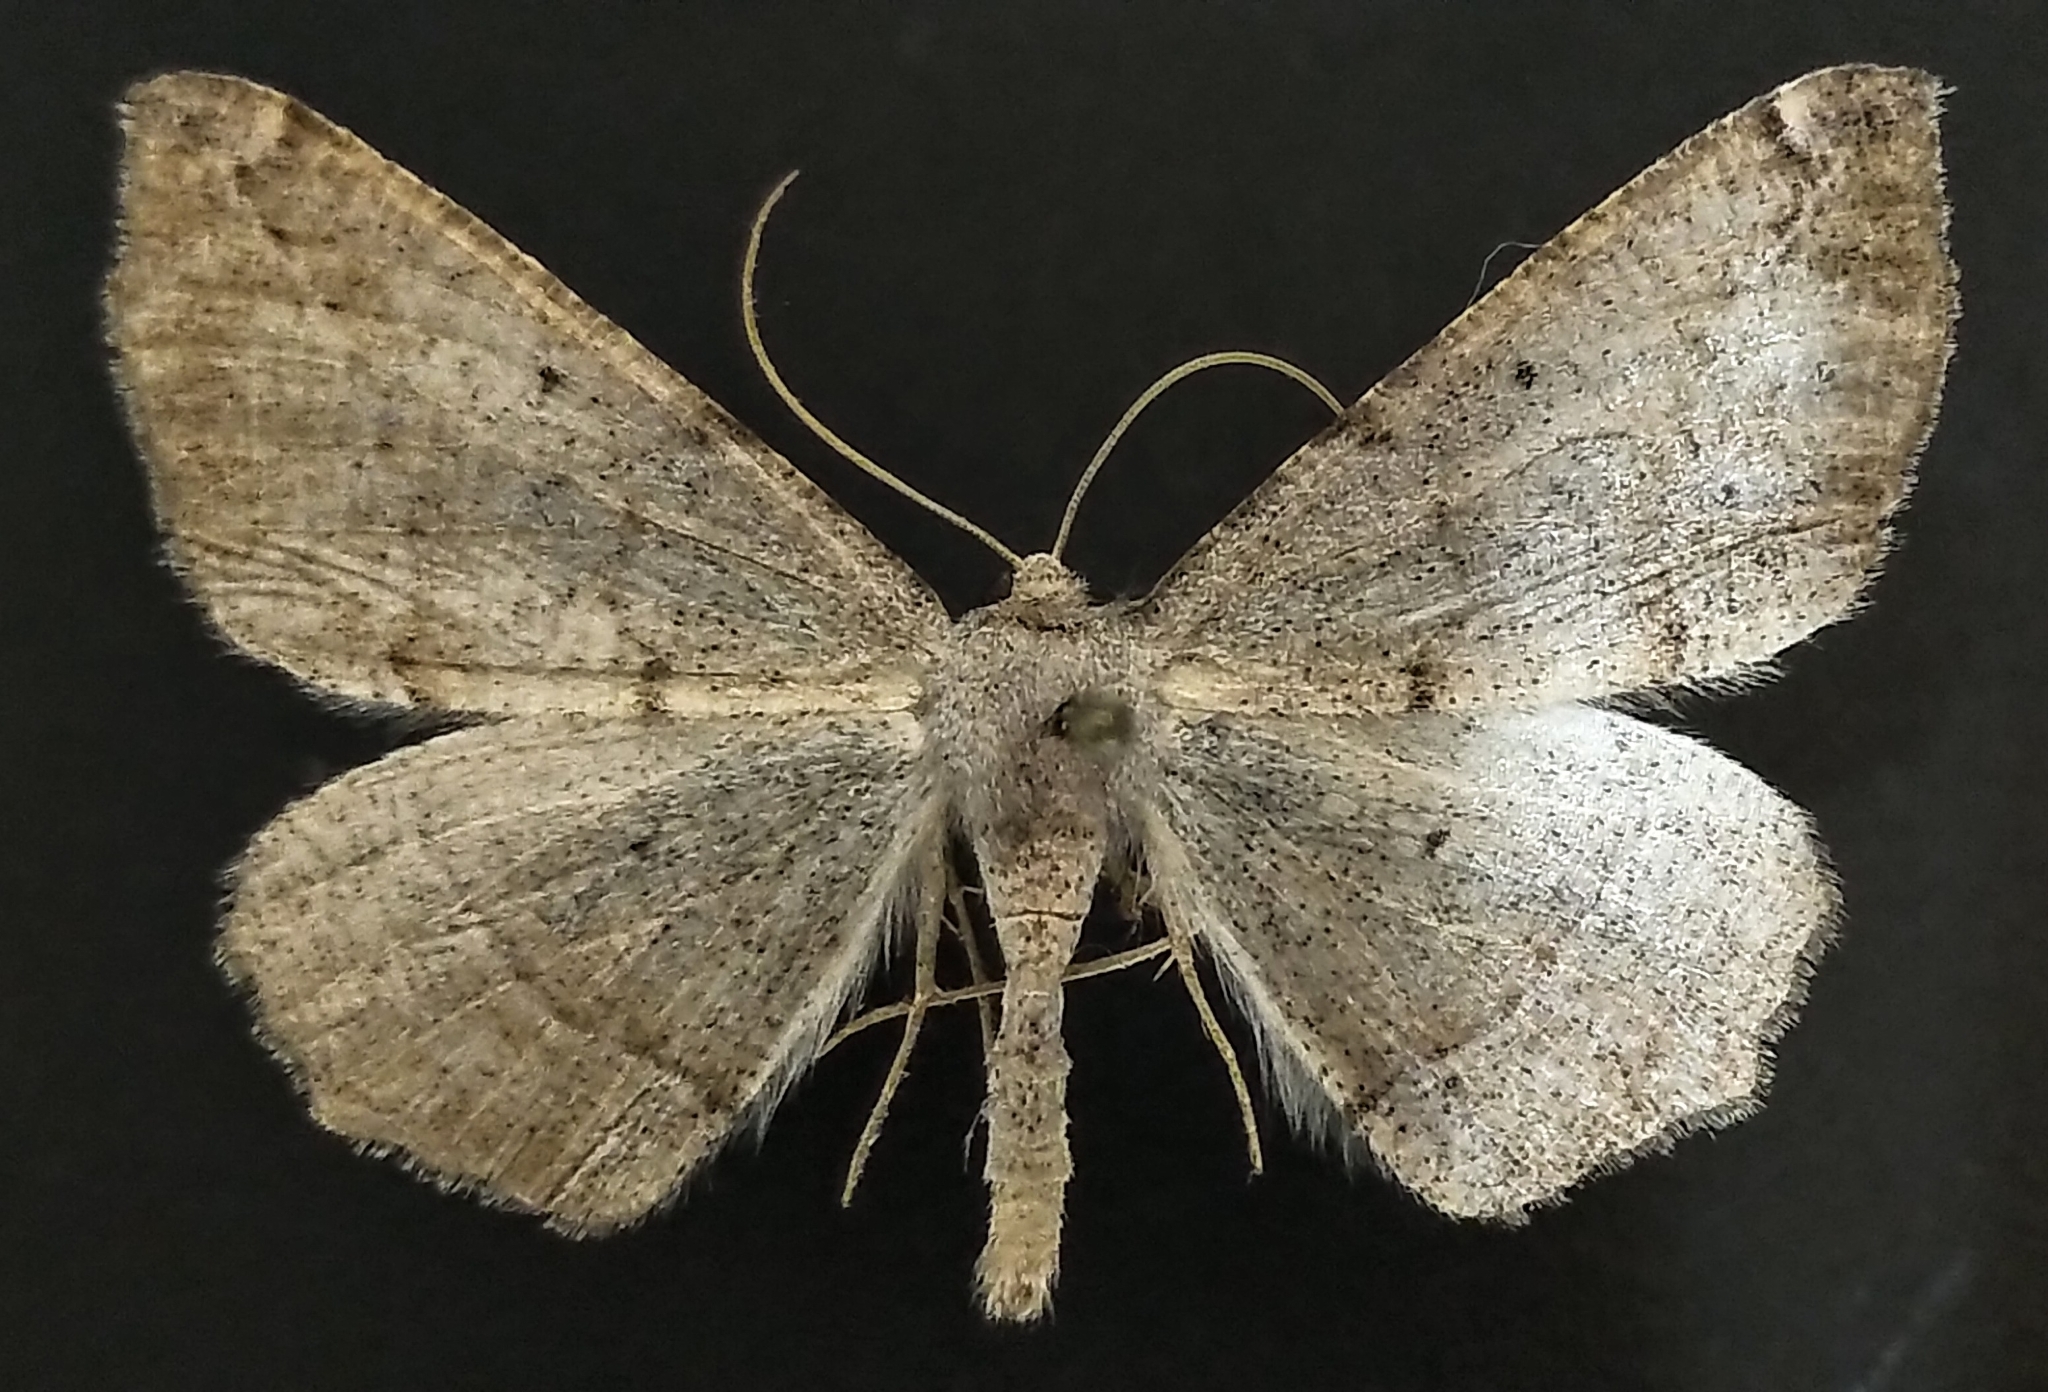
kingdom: Animalia
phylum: Arthropoda
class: Insecta
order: Lepidoptera
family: Geometridae
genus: Prochoerodes
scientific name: Prochoerodes forficaria
